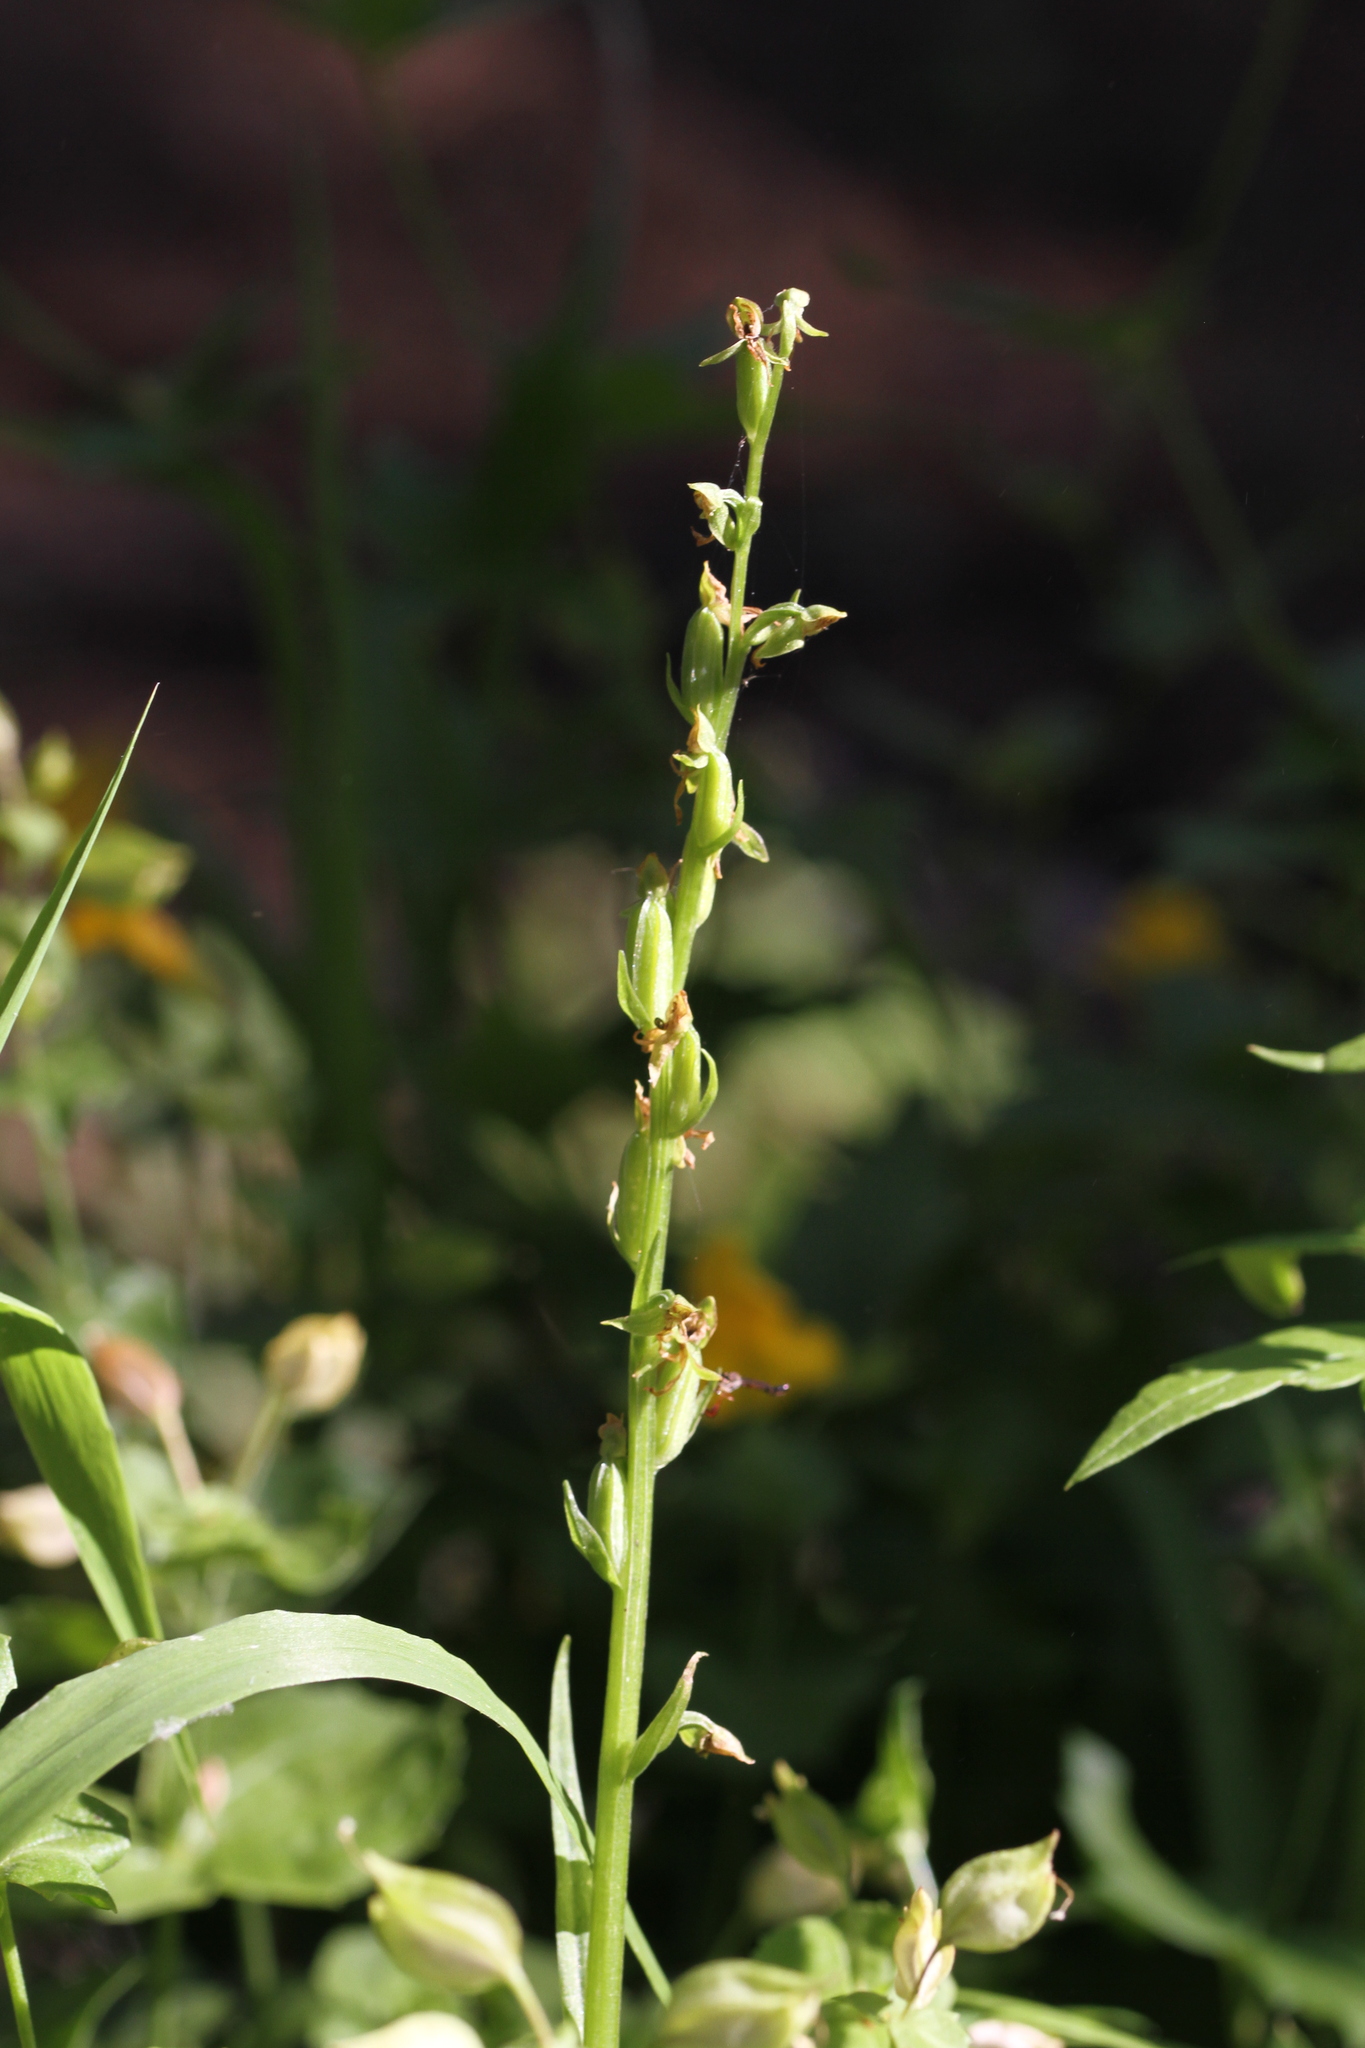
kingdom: Plantae
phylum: Tracheophyta
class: Liliopsida
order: Asparagales
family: Orchidaceae
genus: Platanthera
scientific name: Platanthera sparsiflora
